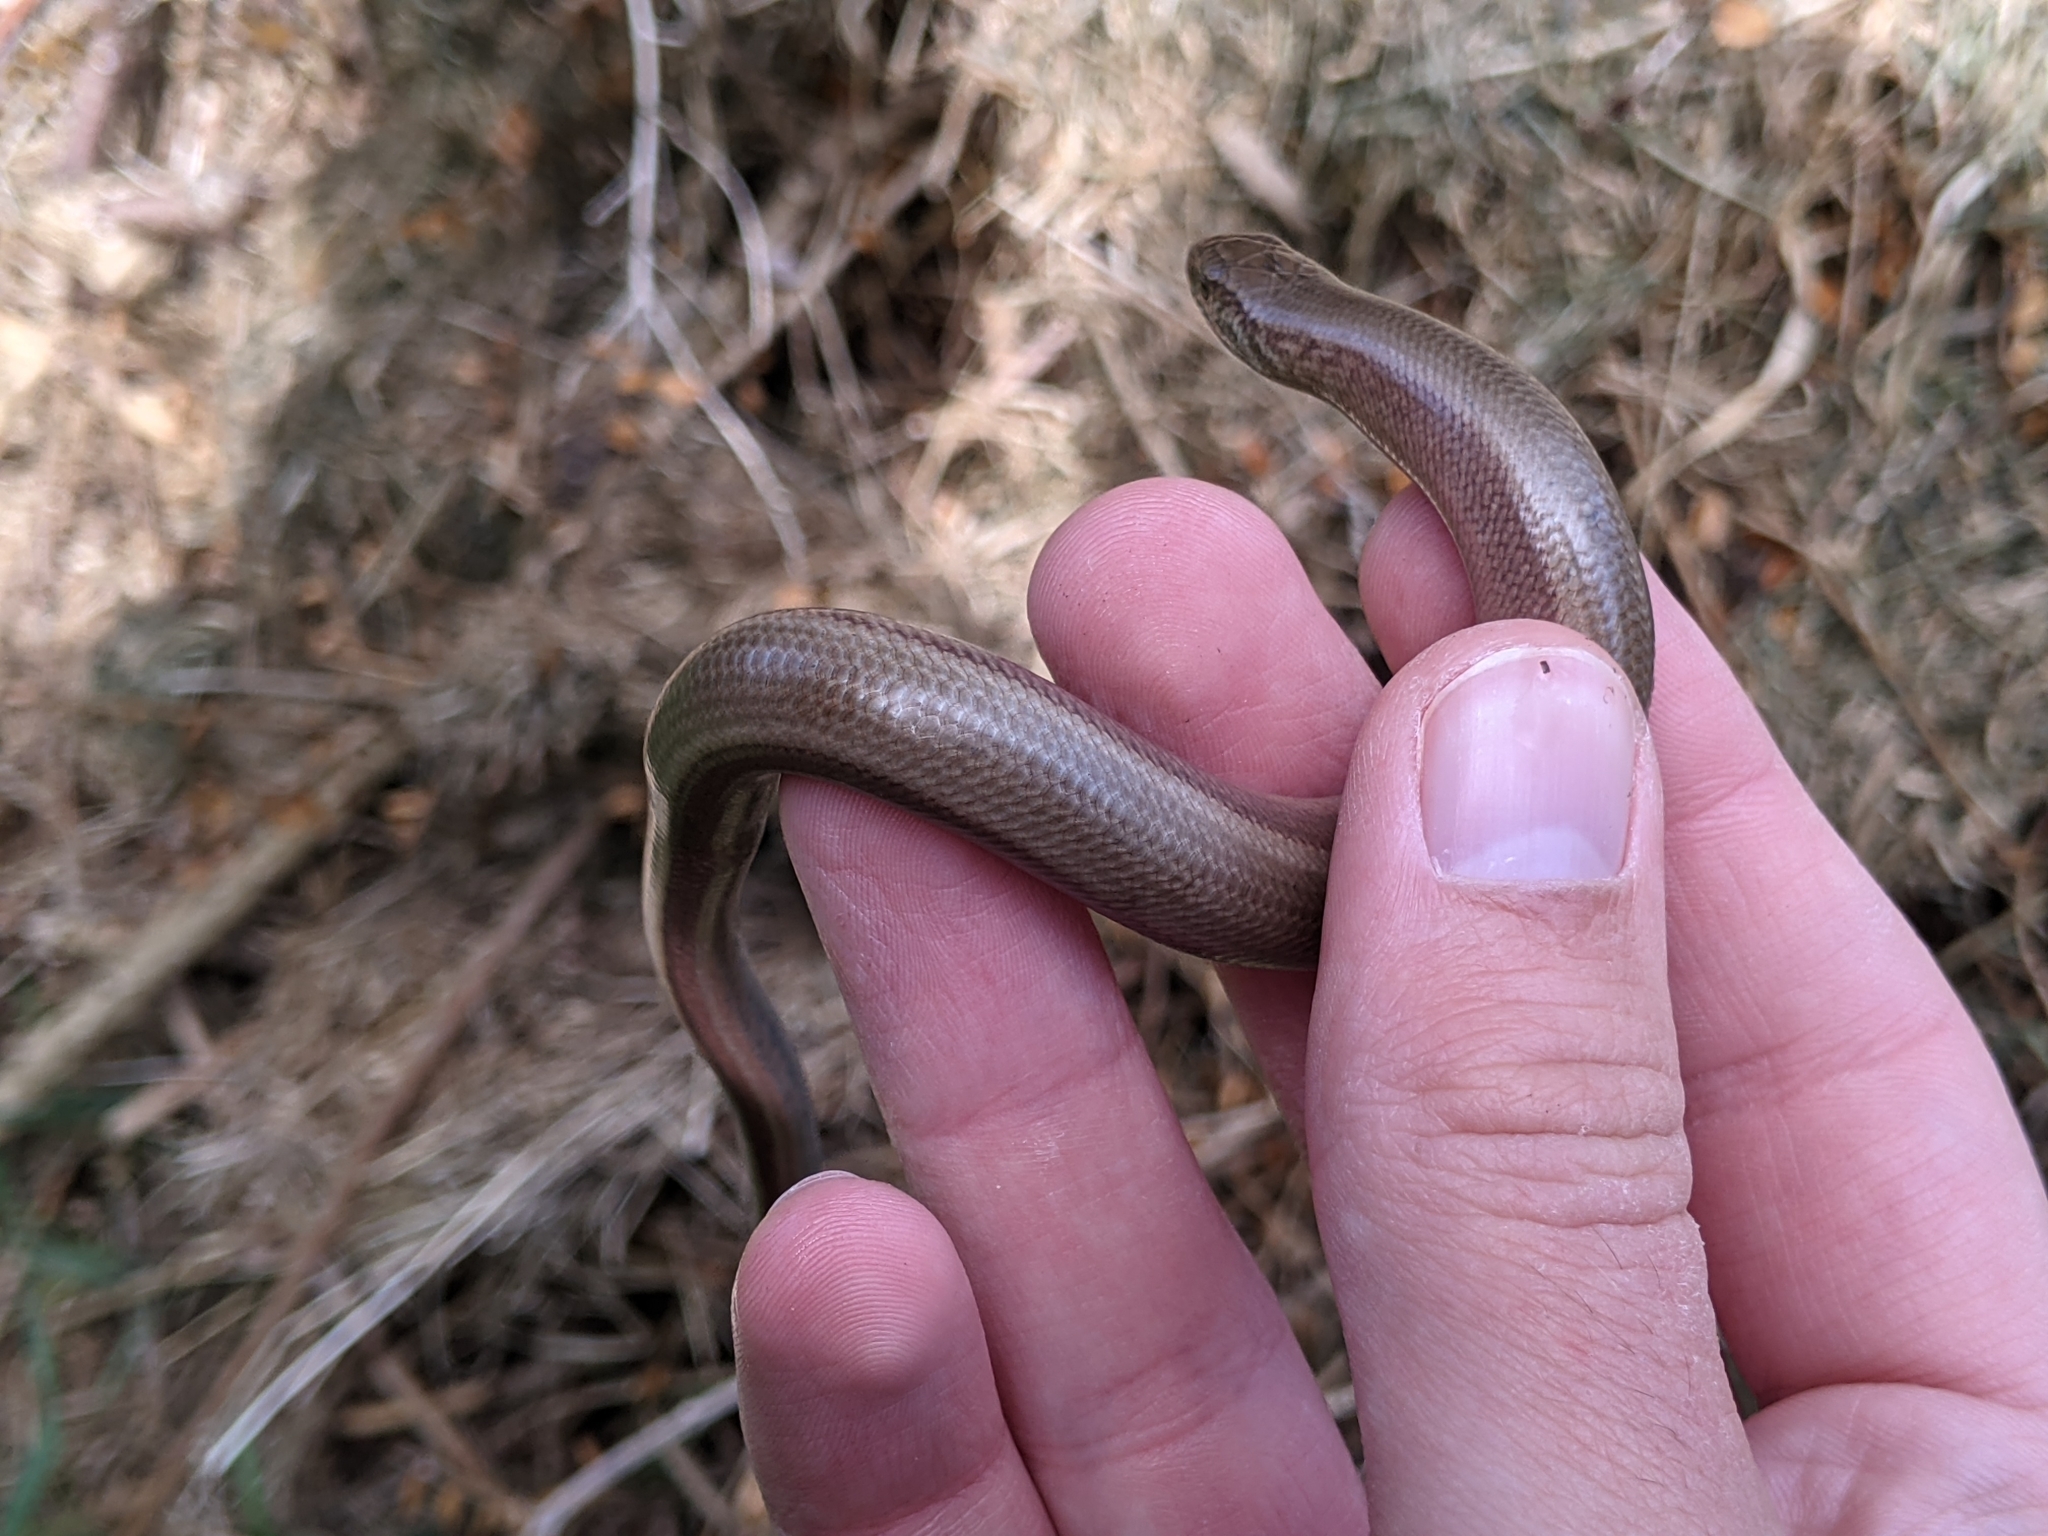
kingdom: Animalia
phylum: Chordata
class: Squamata
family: Anguidae
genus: Anguis
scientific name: Anguis fragilis
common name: Slow worm
